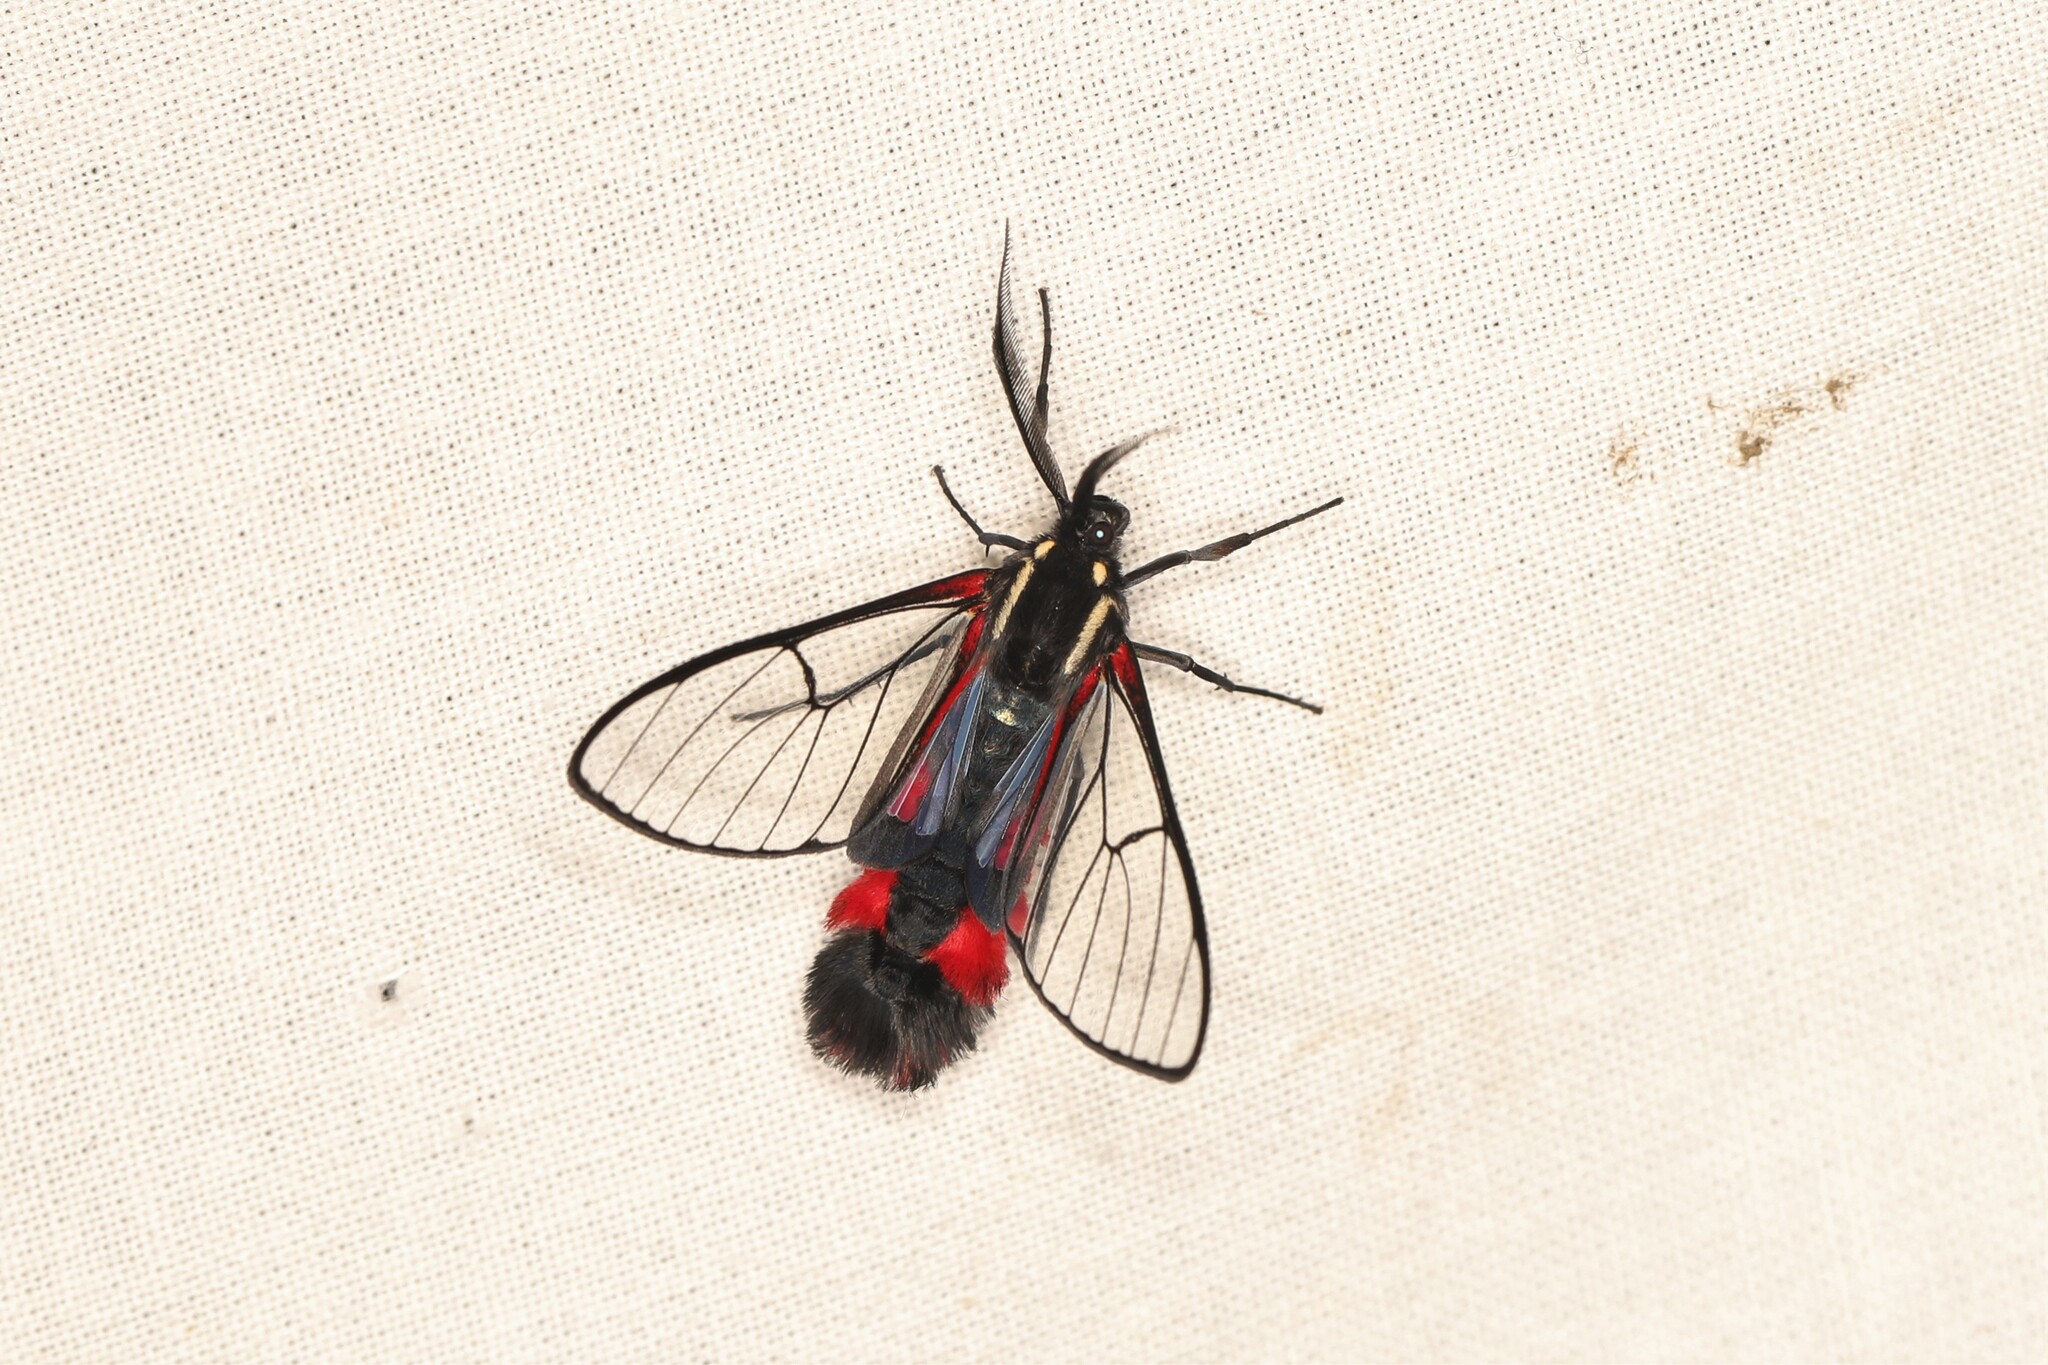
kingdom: Animalia
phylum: Arthropoda
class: Insecta
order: Lepidoptera
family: Erebidae
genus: Dinia
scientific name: Dinia mena
